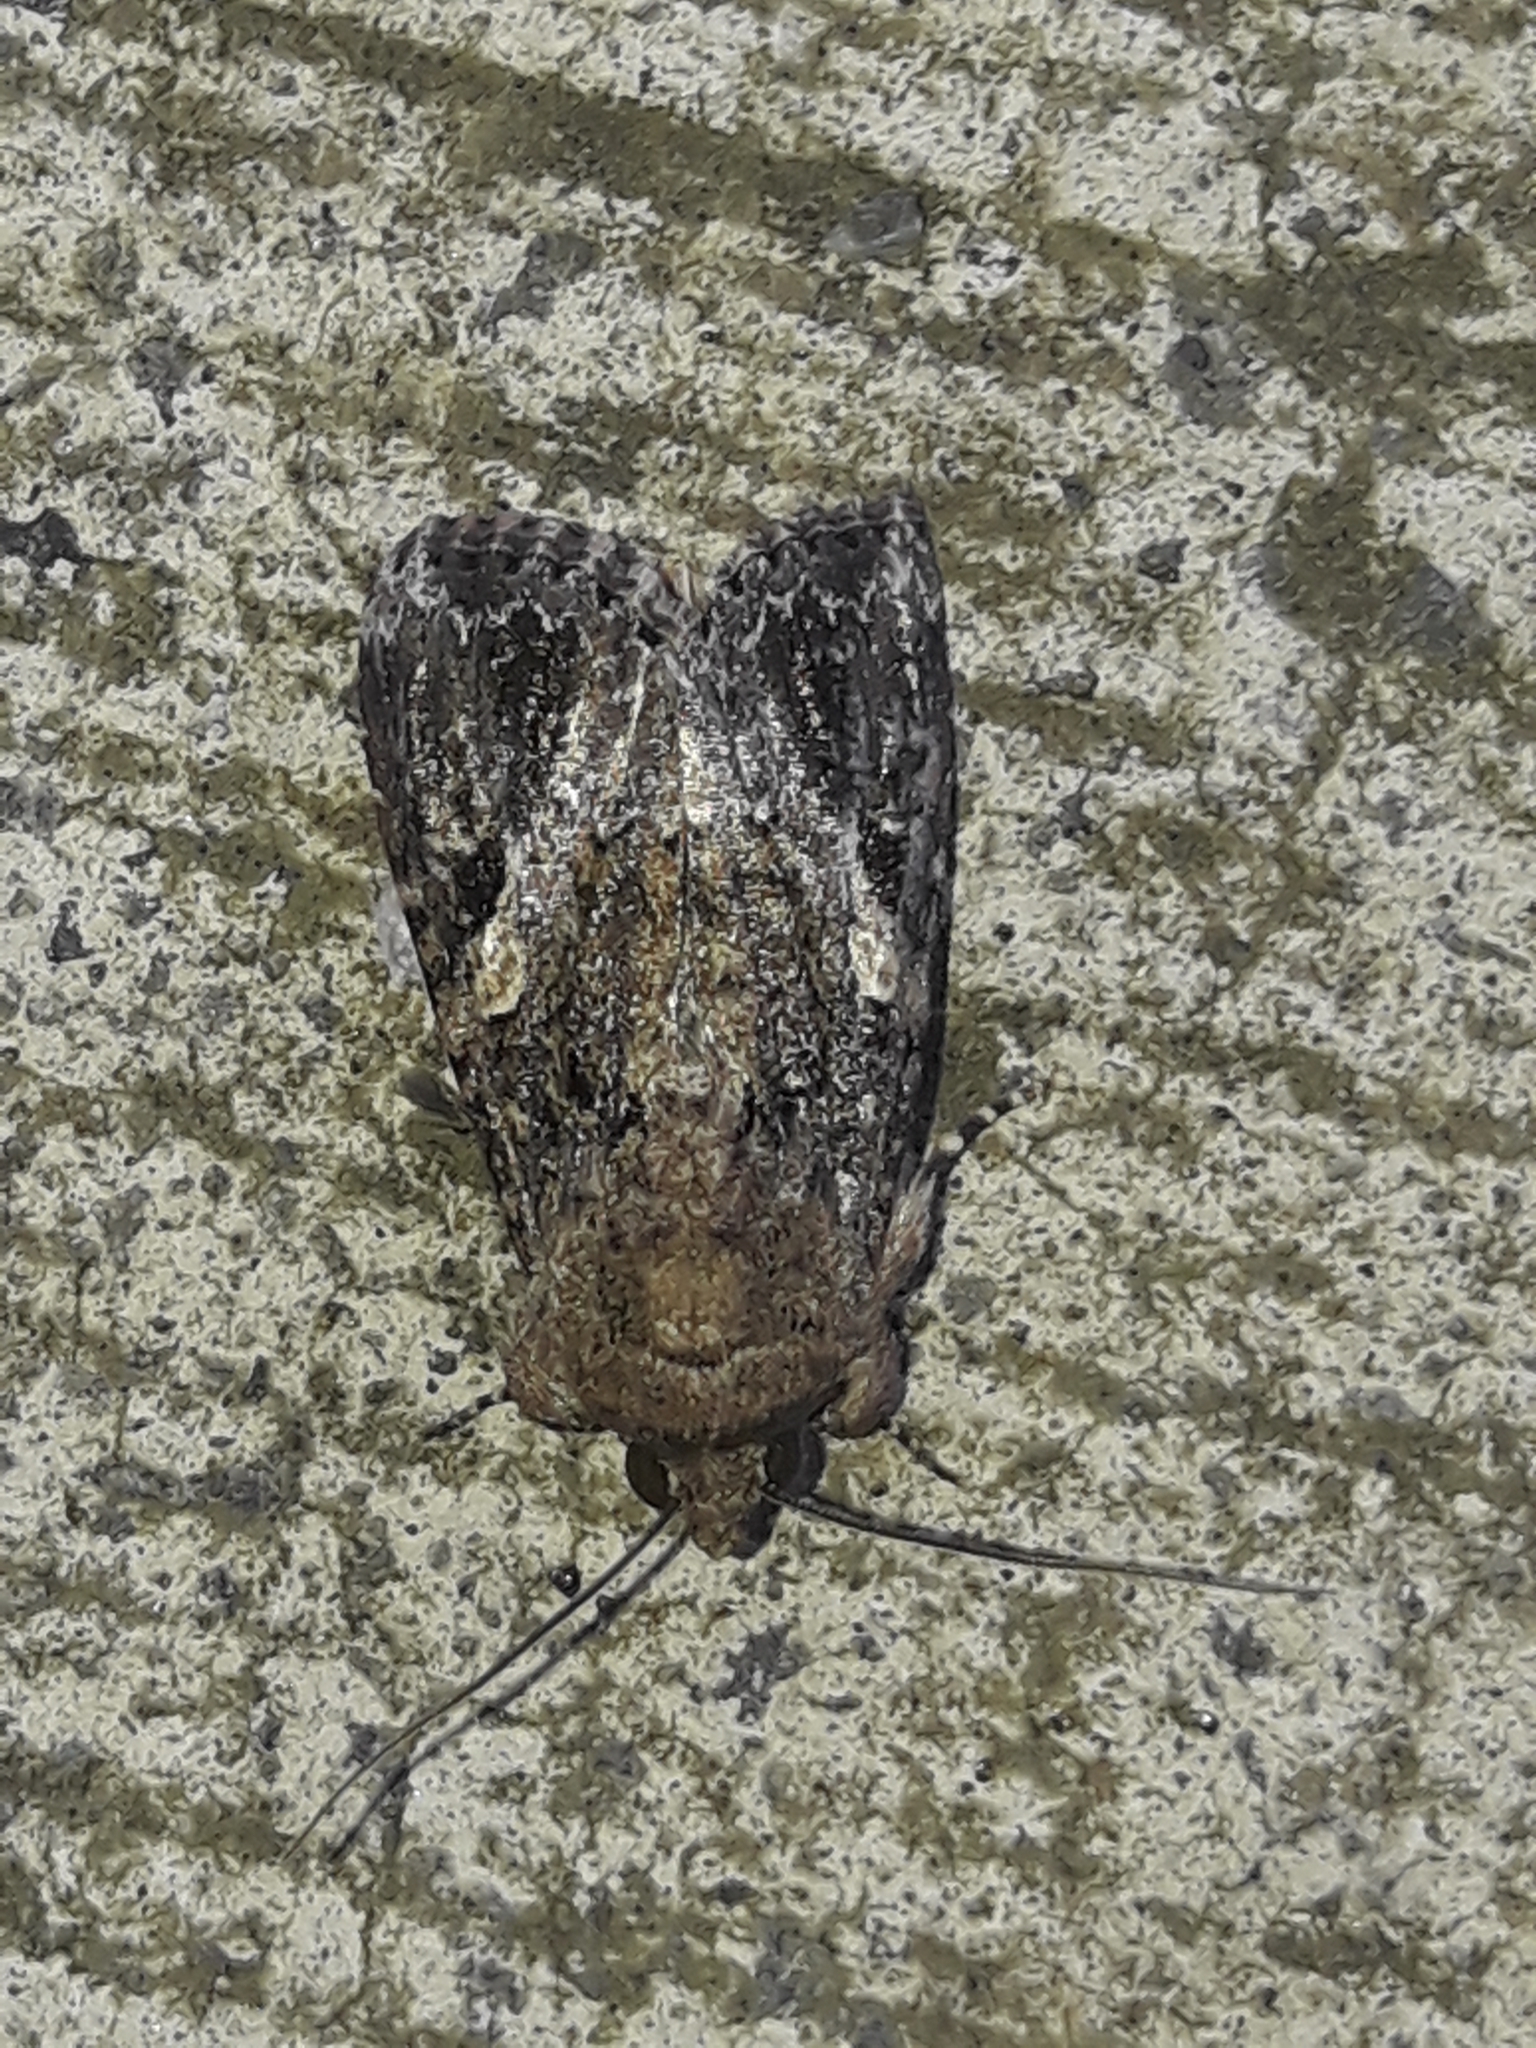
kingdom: Animalia
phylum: Arthropoda
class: Insecta
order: Lepidoptera
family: Noctuidae
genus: Spodoptera
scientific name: Spodoptera mauritia
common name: Lawn armyworm
